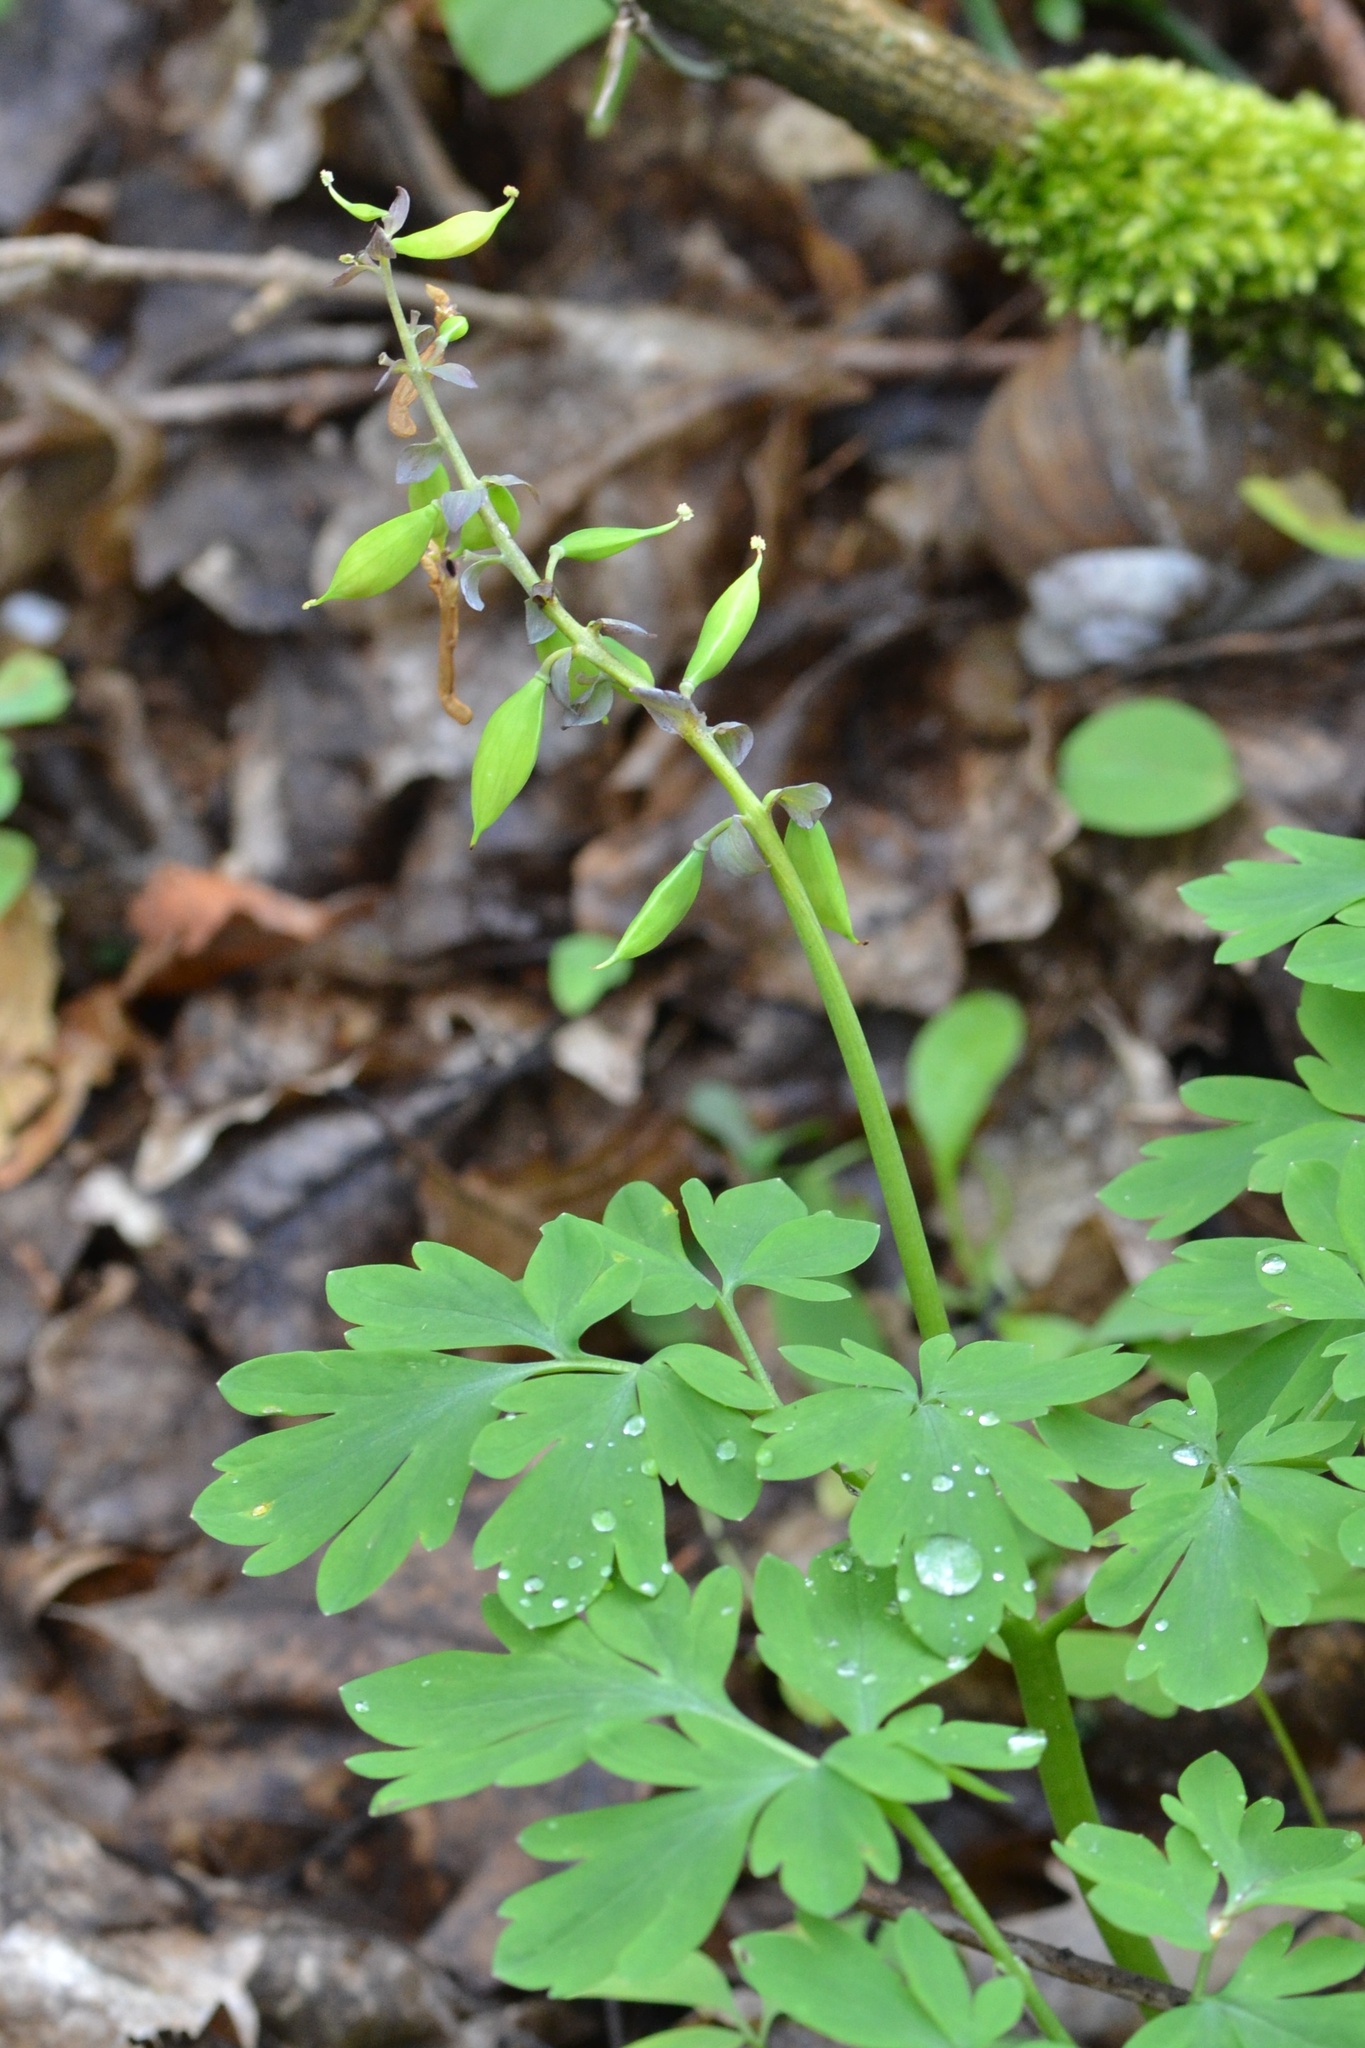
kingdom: Plantae
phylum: Tracheophyta
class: Magnoliopsida
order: Ranunculales
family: Papaveraceae
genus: Corydalis
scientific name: Corydalis cava
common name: Hollowroot
